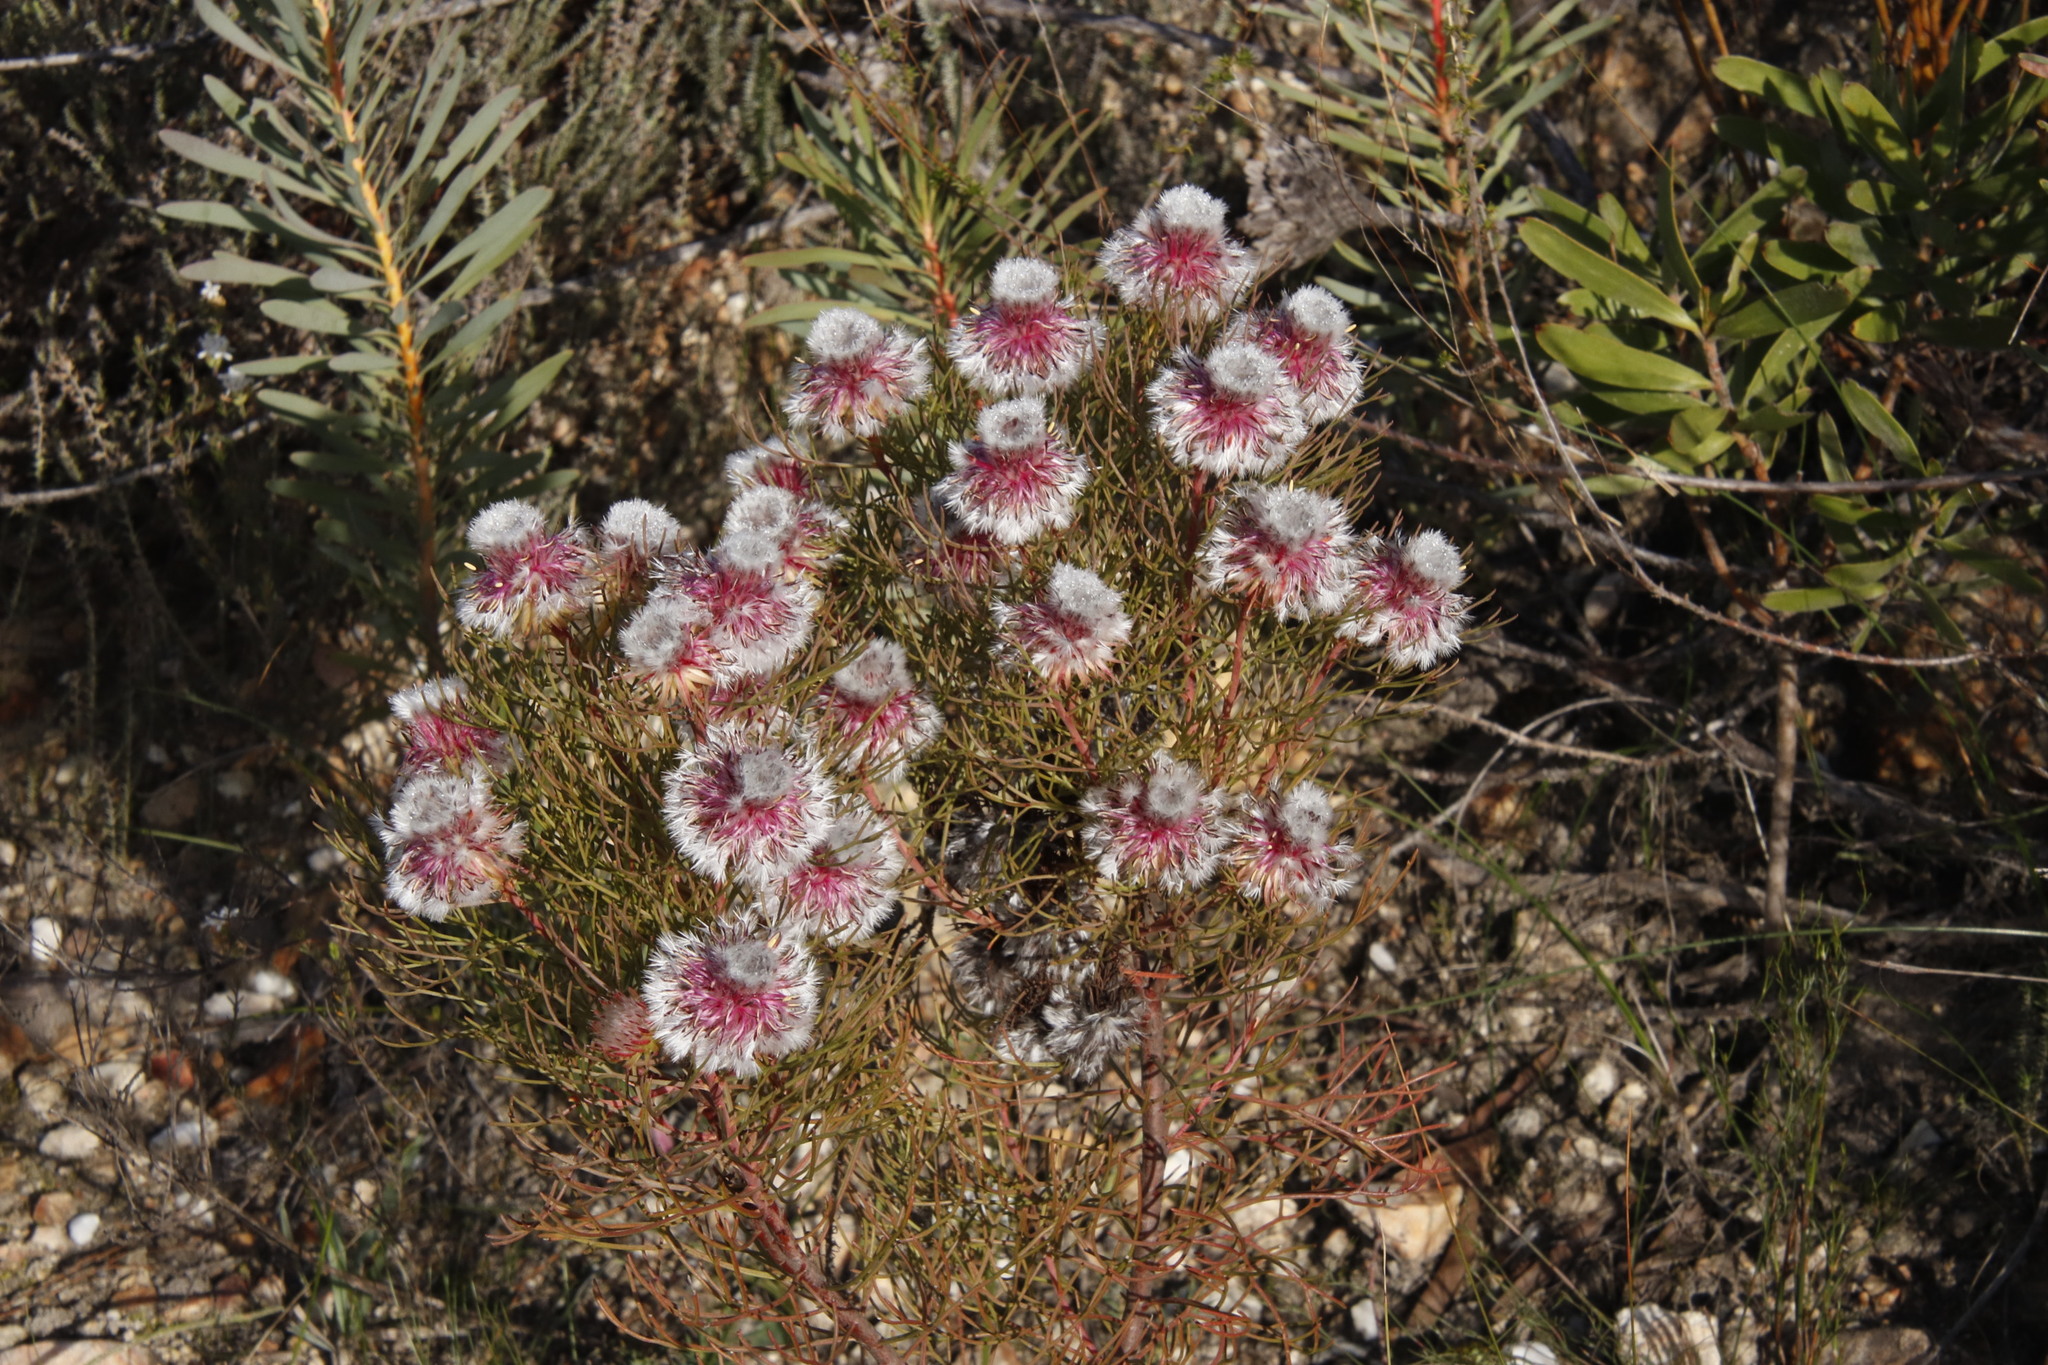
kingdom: Plantae
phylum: Tracheophyta
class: Magnoliopsida
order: Proteales
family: Proteaceae
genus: Serruria
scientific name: Serruria phylicoides
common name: Bearded spiderhead
